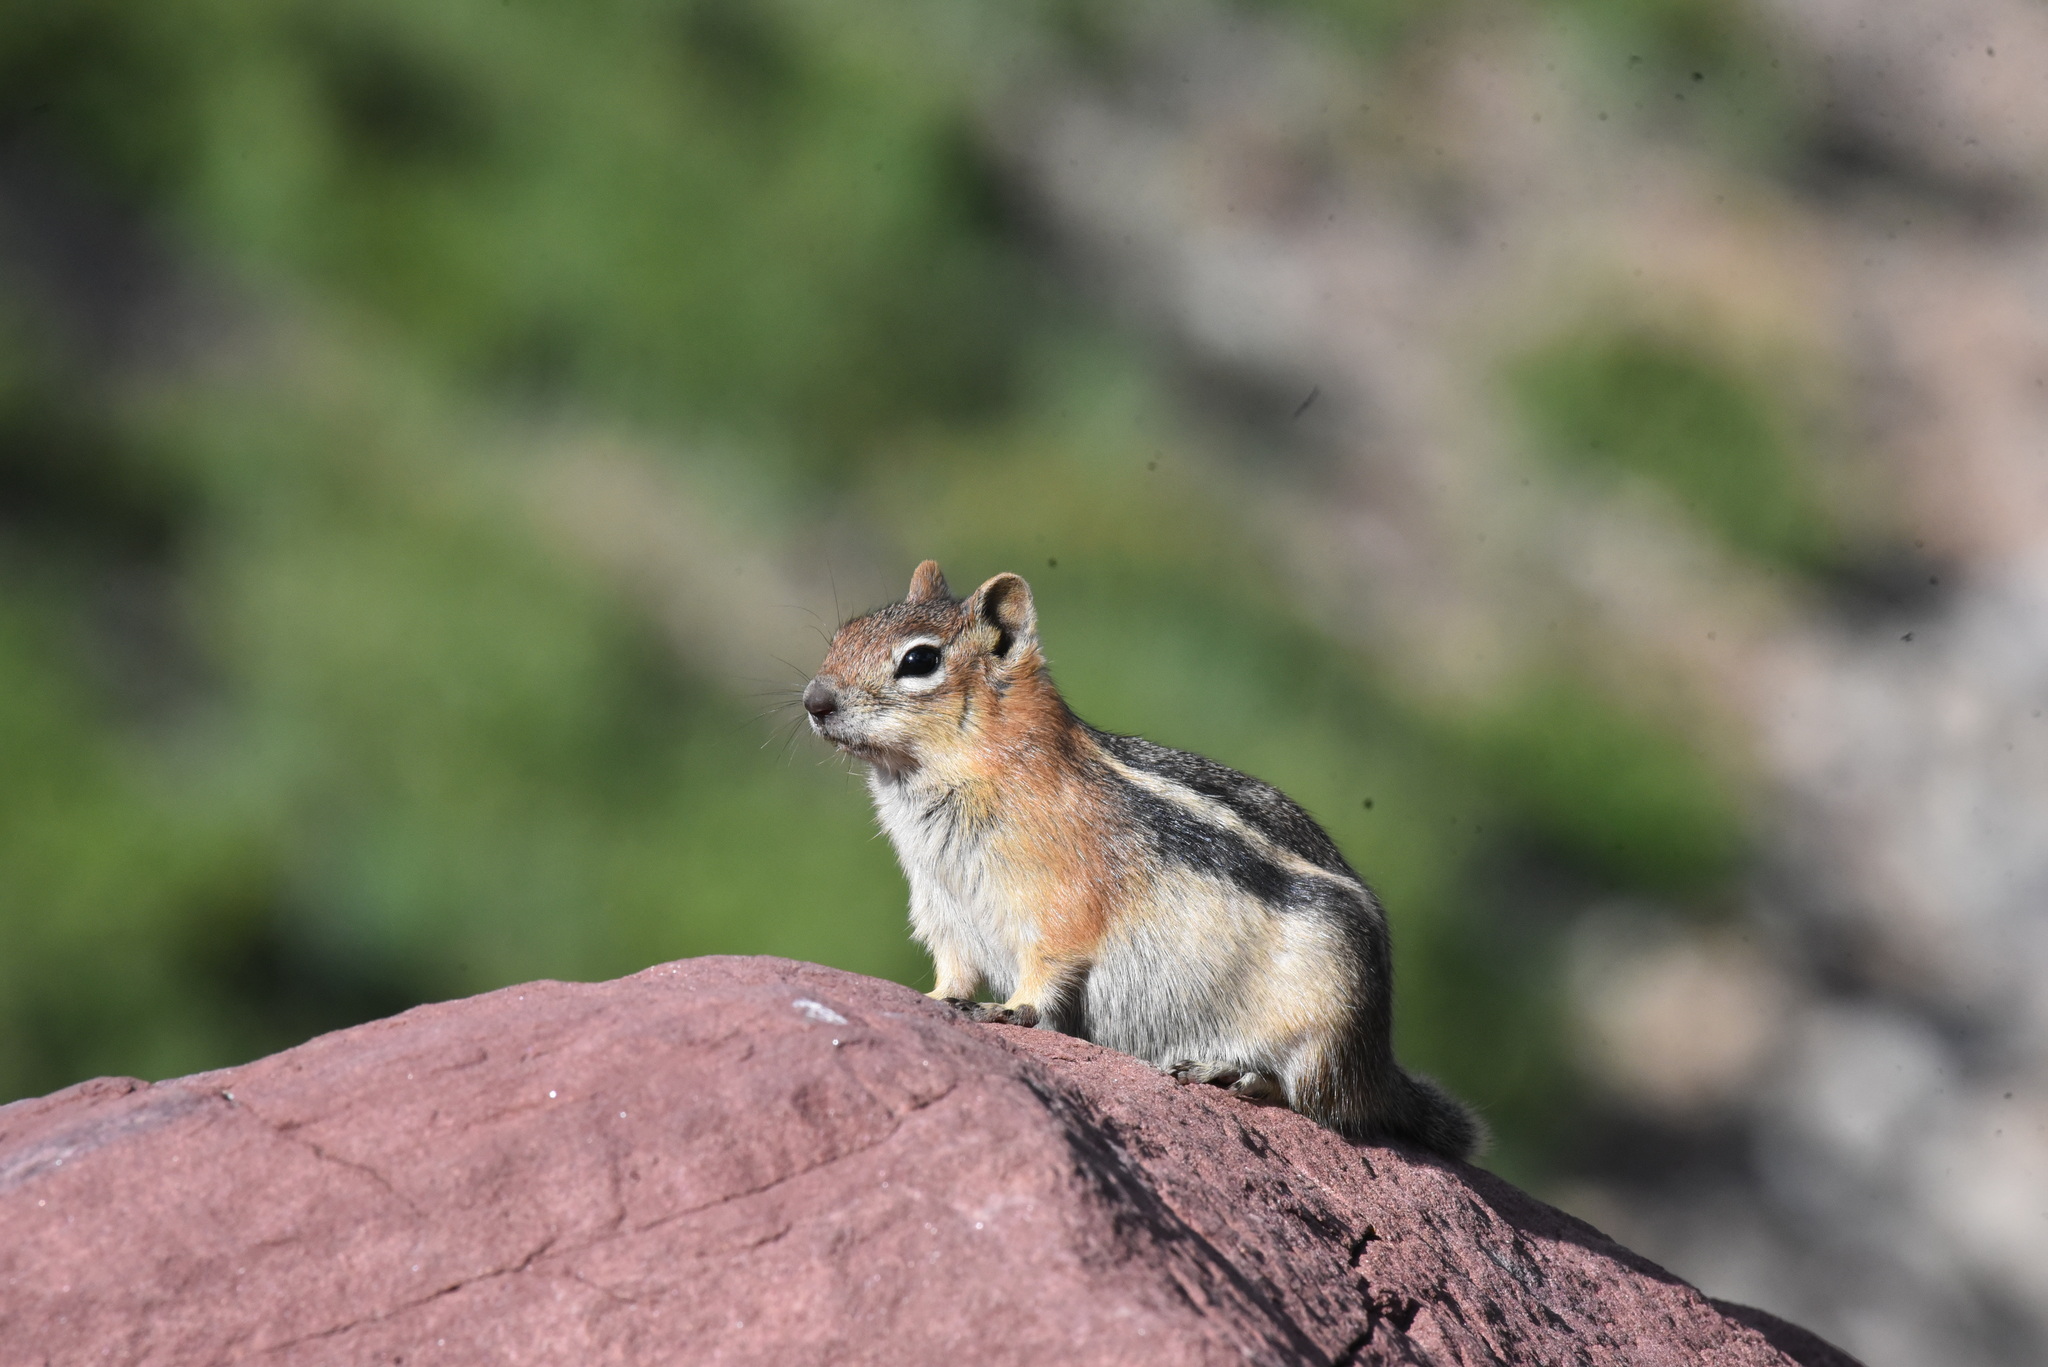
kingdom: Animalia
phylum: Chordata
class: Mammalia
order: Rodentia
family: Sciuridae
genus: Callospermophilus
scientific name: Callospermophilus lateralis
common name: Golden-mantled ground squirrel
